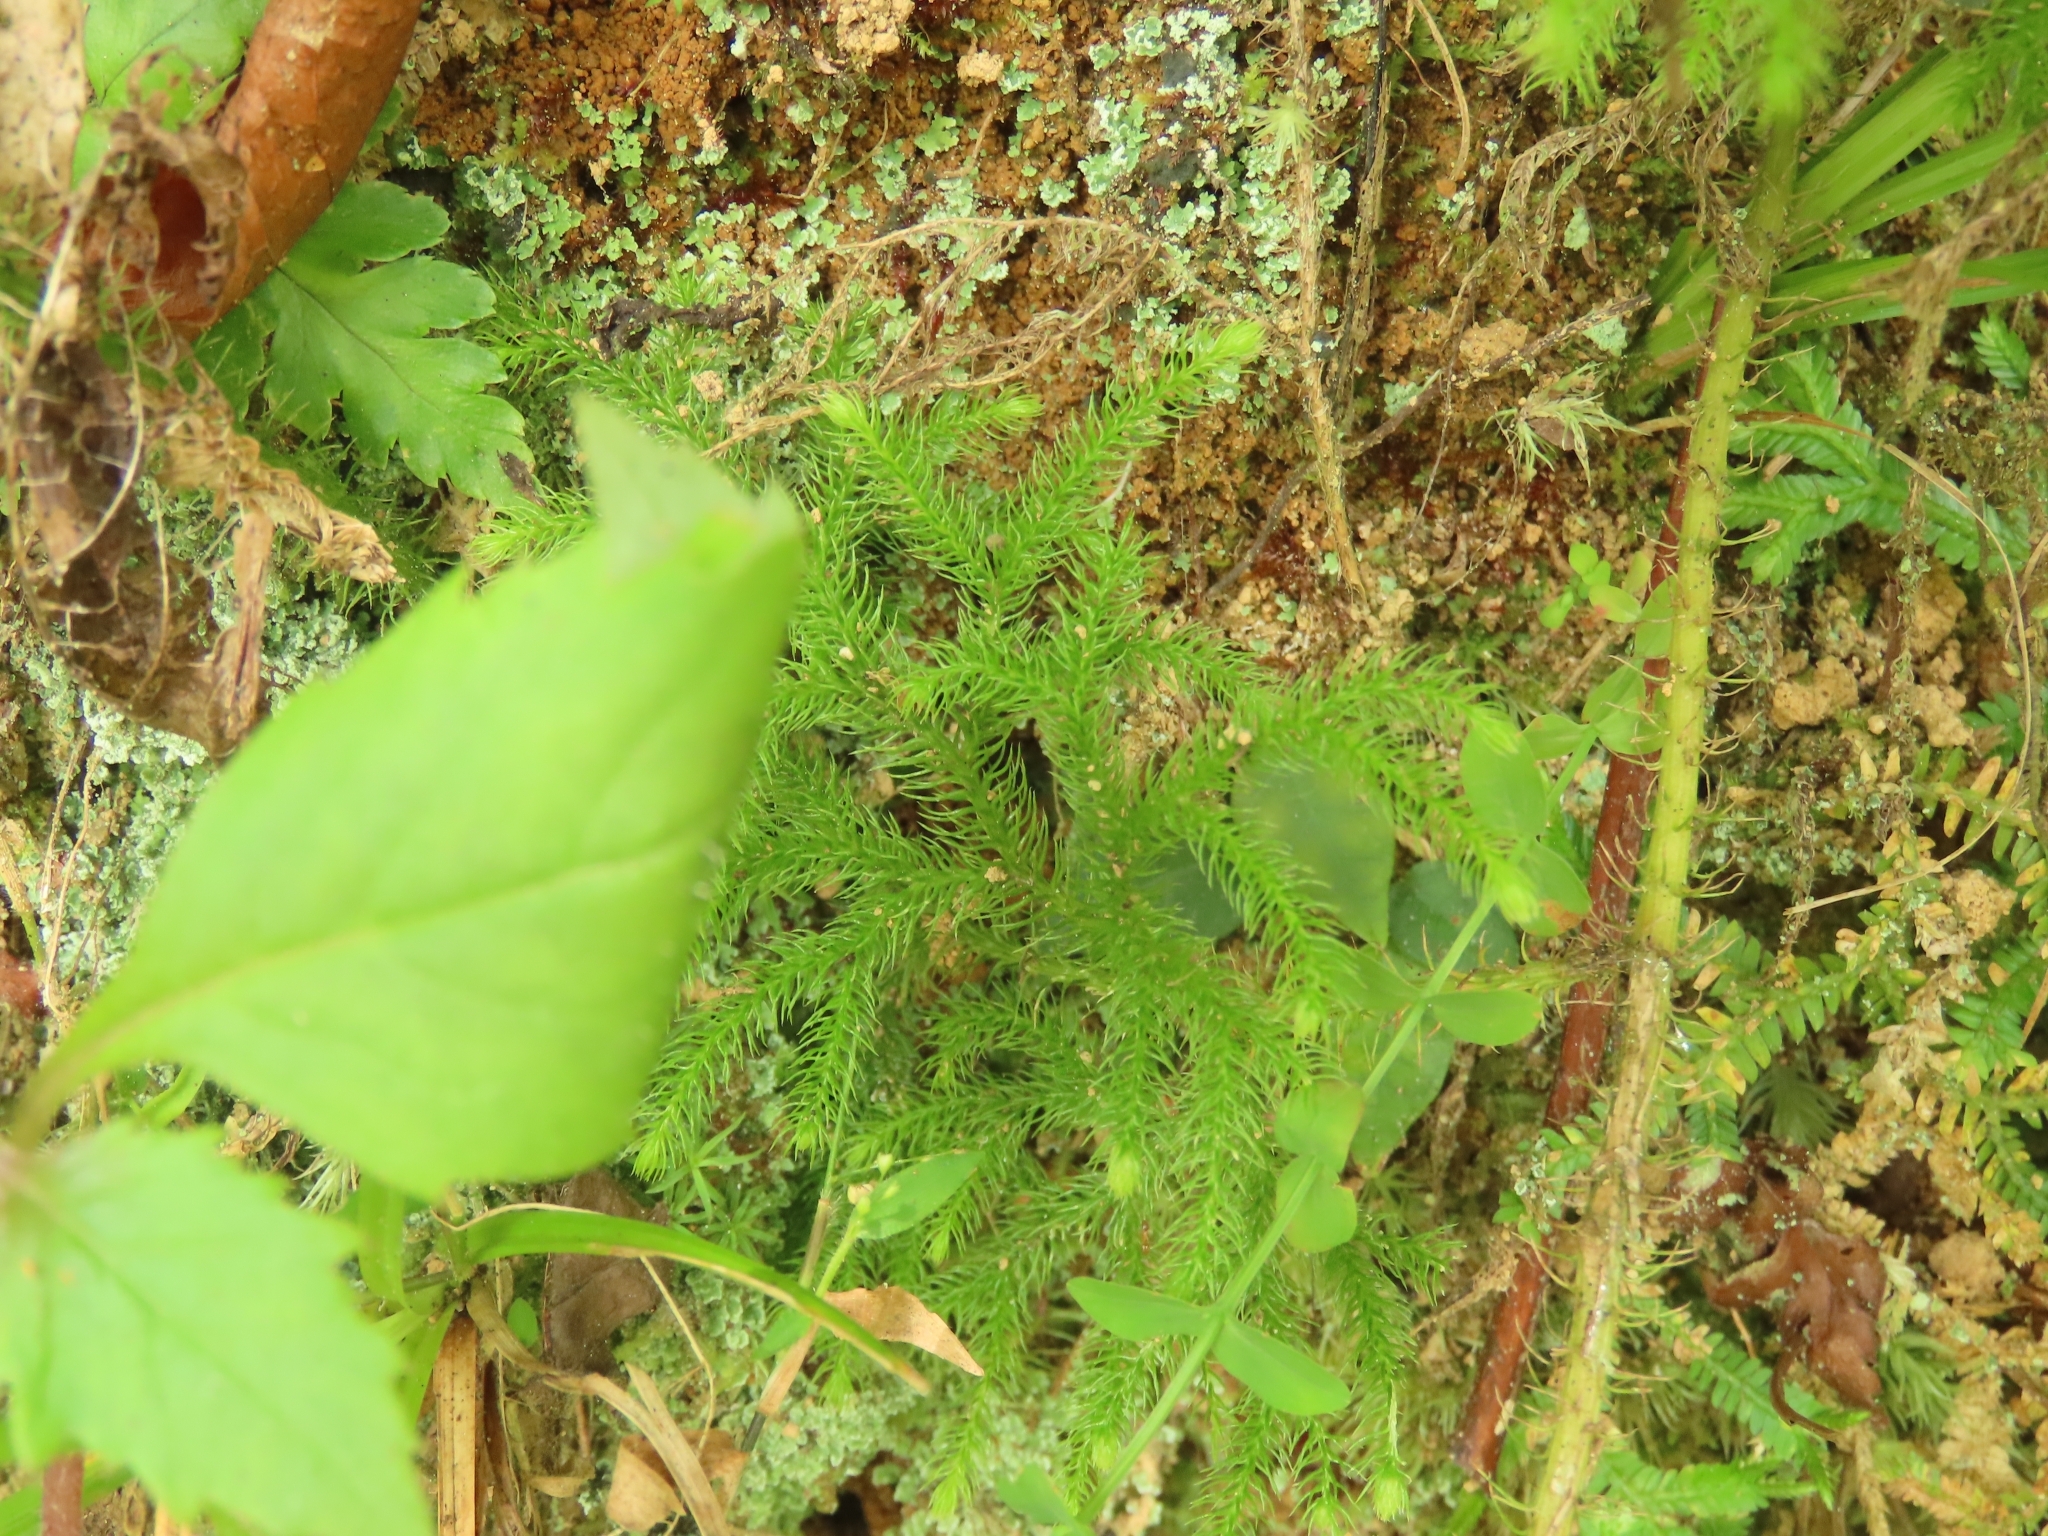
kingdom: Plantae
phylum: Tracheophyta
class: Lycopodiopsida
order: Lycopodiales
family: Lycopodiaceae
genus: Palhinhaea
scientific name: Palhinhaea cernua
